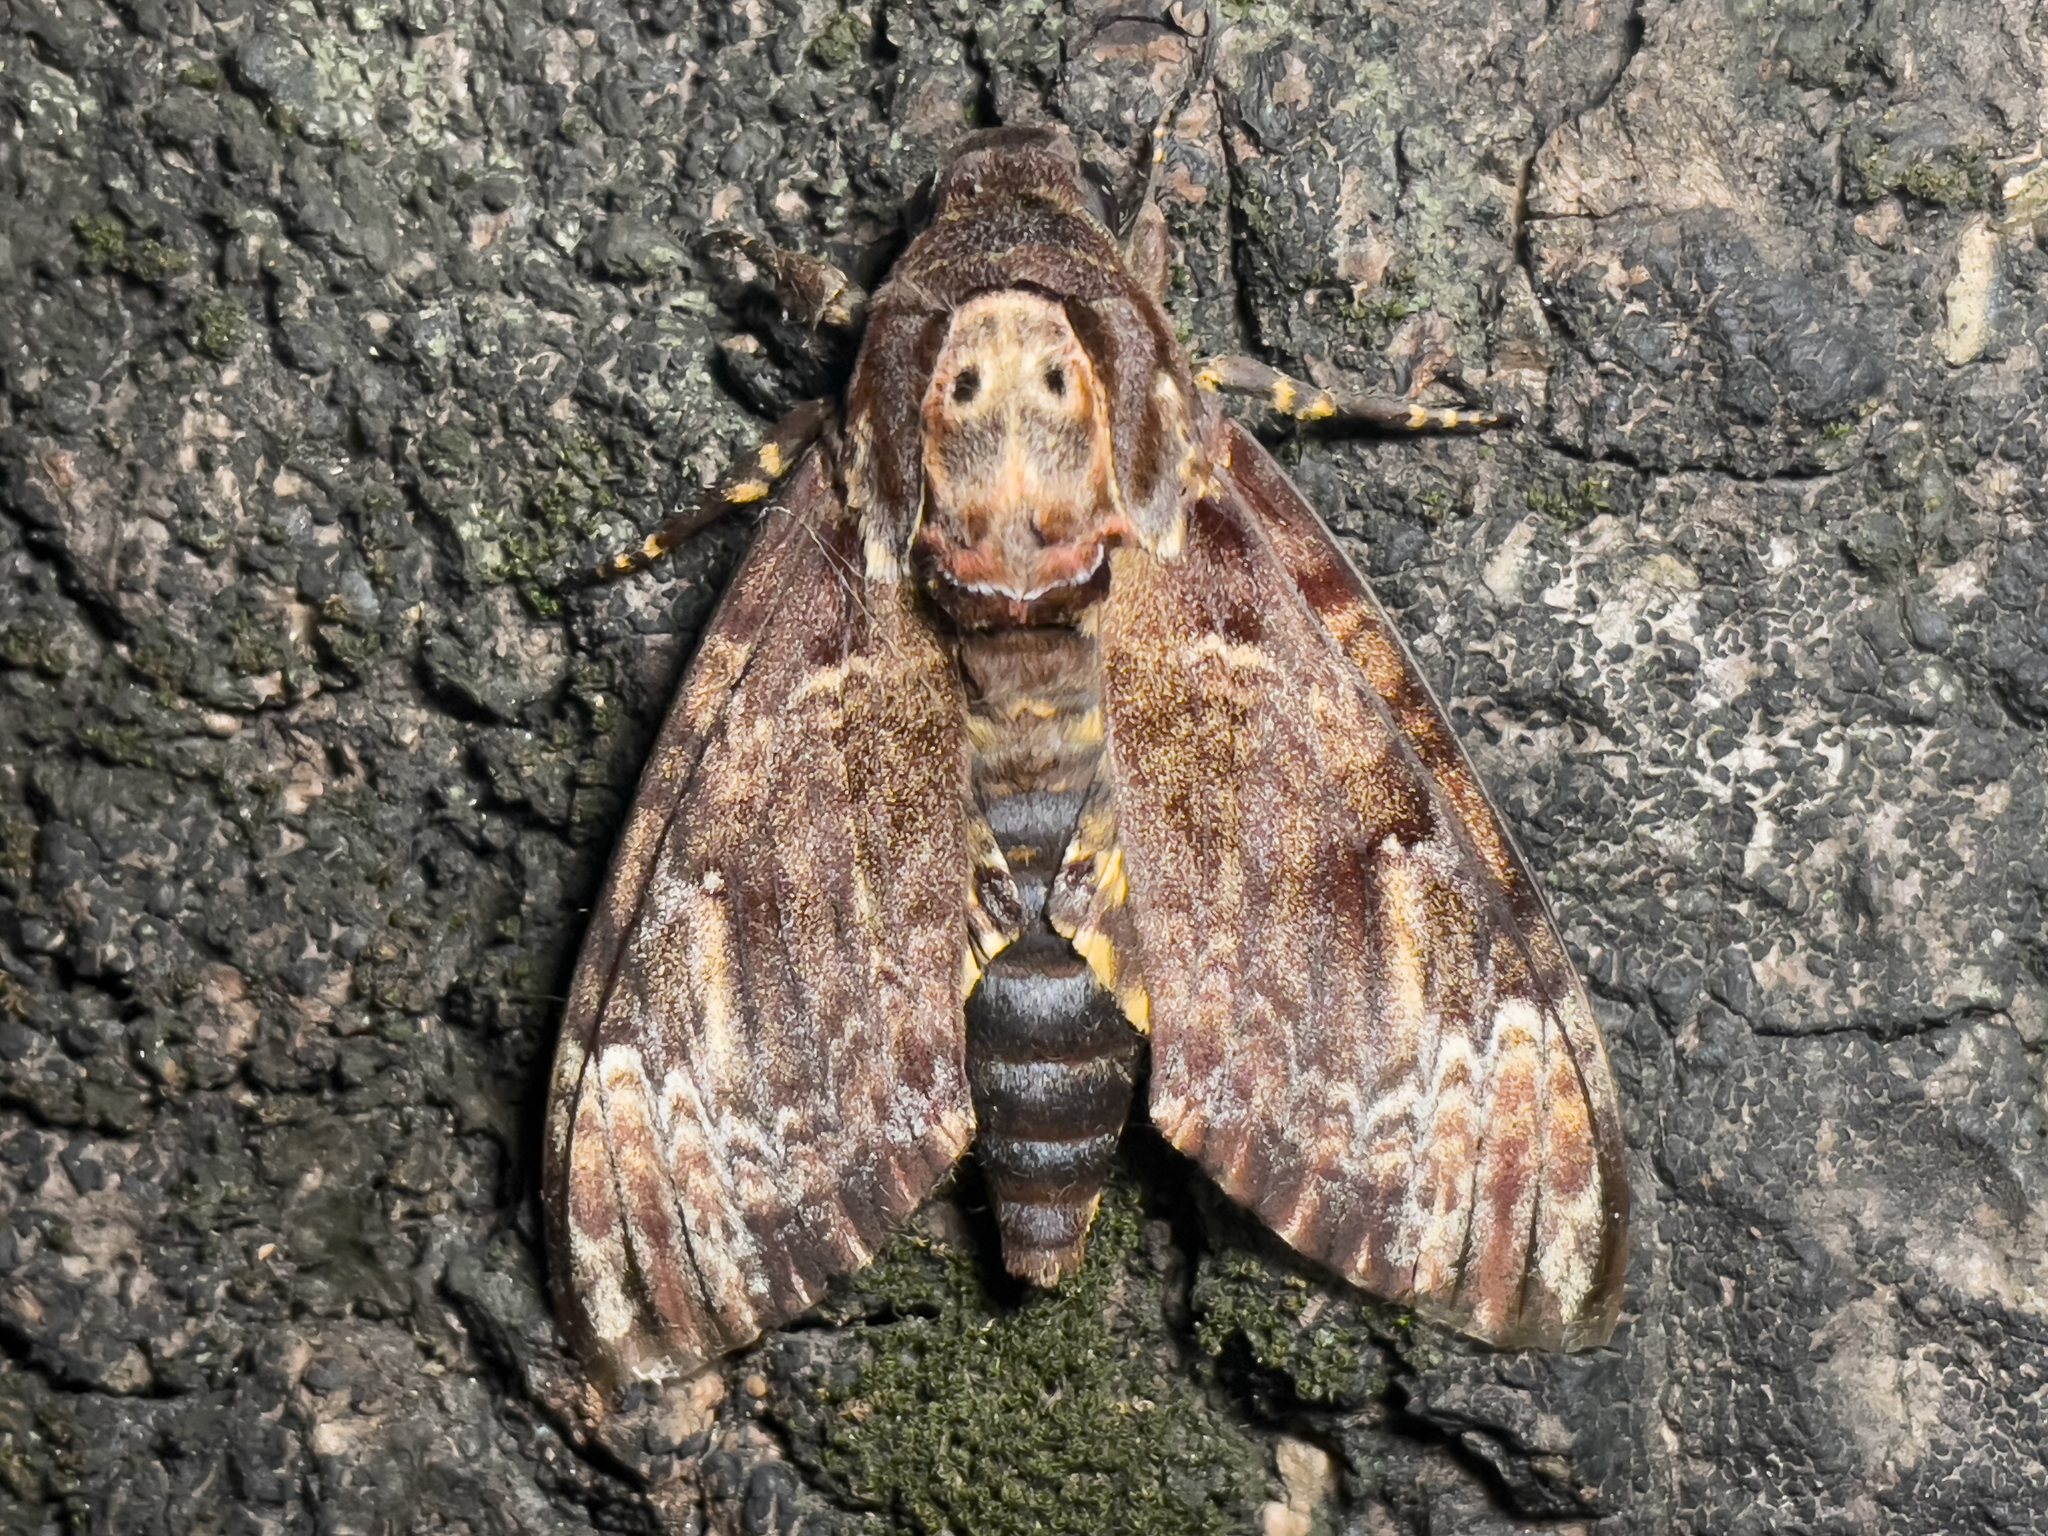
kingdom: Animalia
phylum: Arthropoda
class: Insecta
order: Lepidoptera
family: Sphingidae
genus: Acherontia
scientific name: Acherontia lachesis
